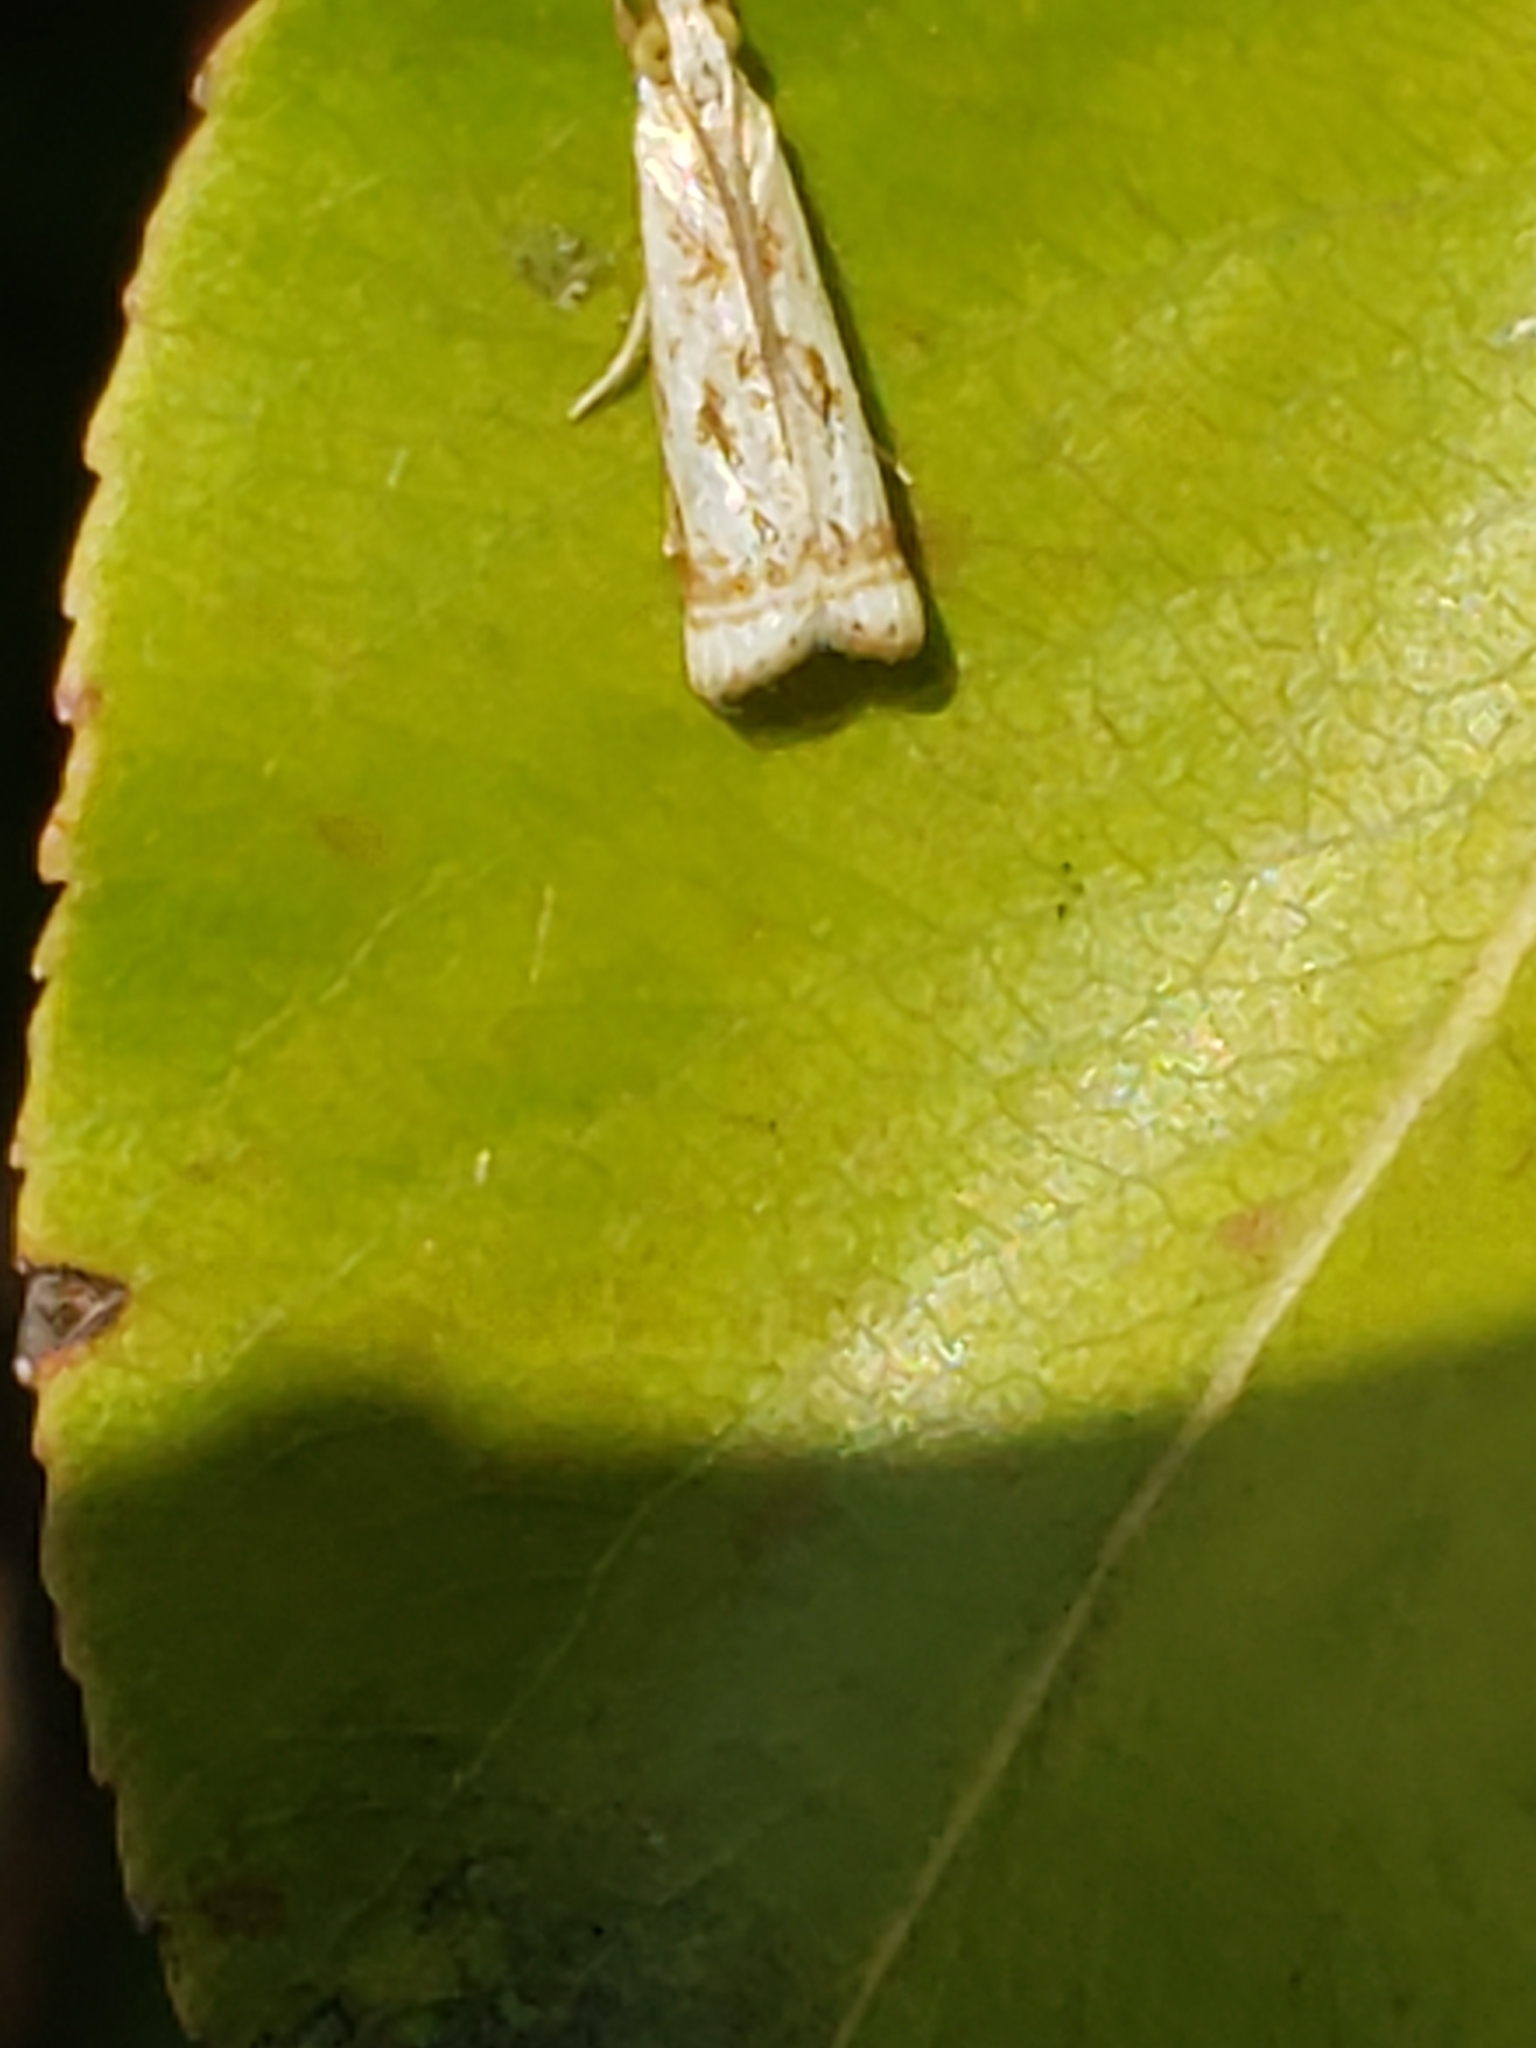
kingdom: Animalia
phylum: Arthropoda
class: Insecta
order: Lepidoptera
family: Crambidae
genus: Microcrambus
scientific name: Microcrambus elegans
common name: Elegant grass-veneer
